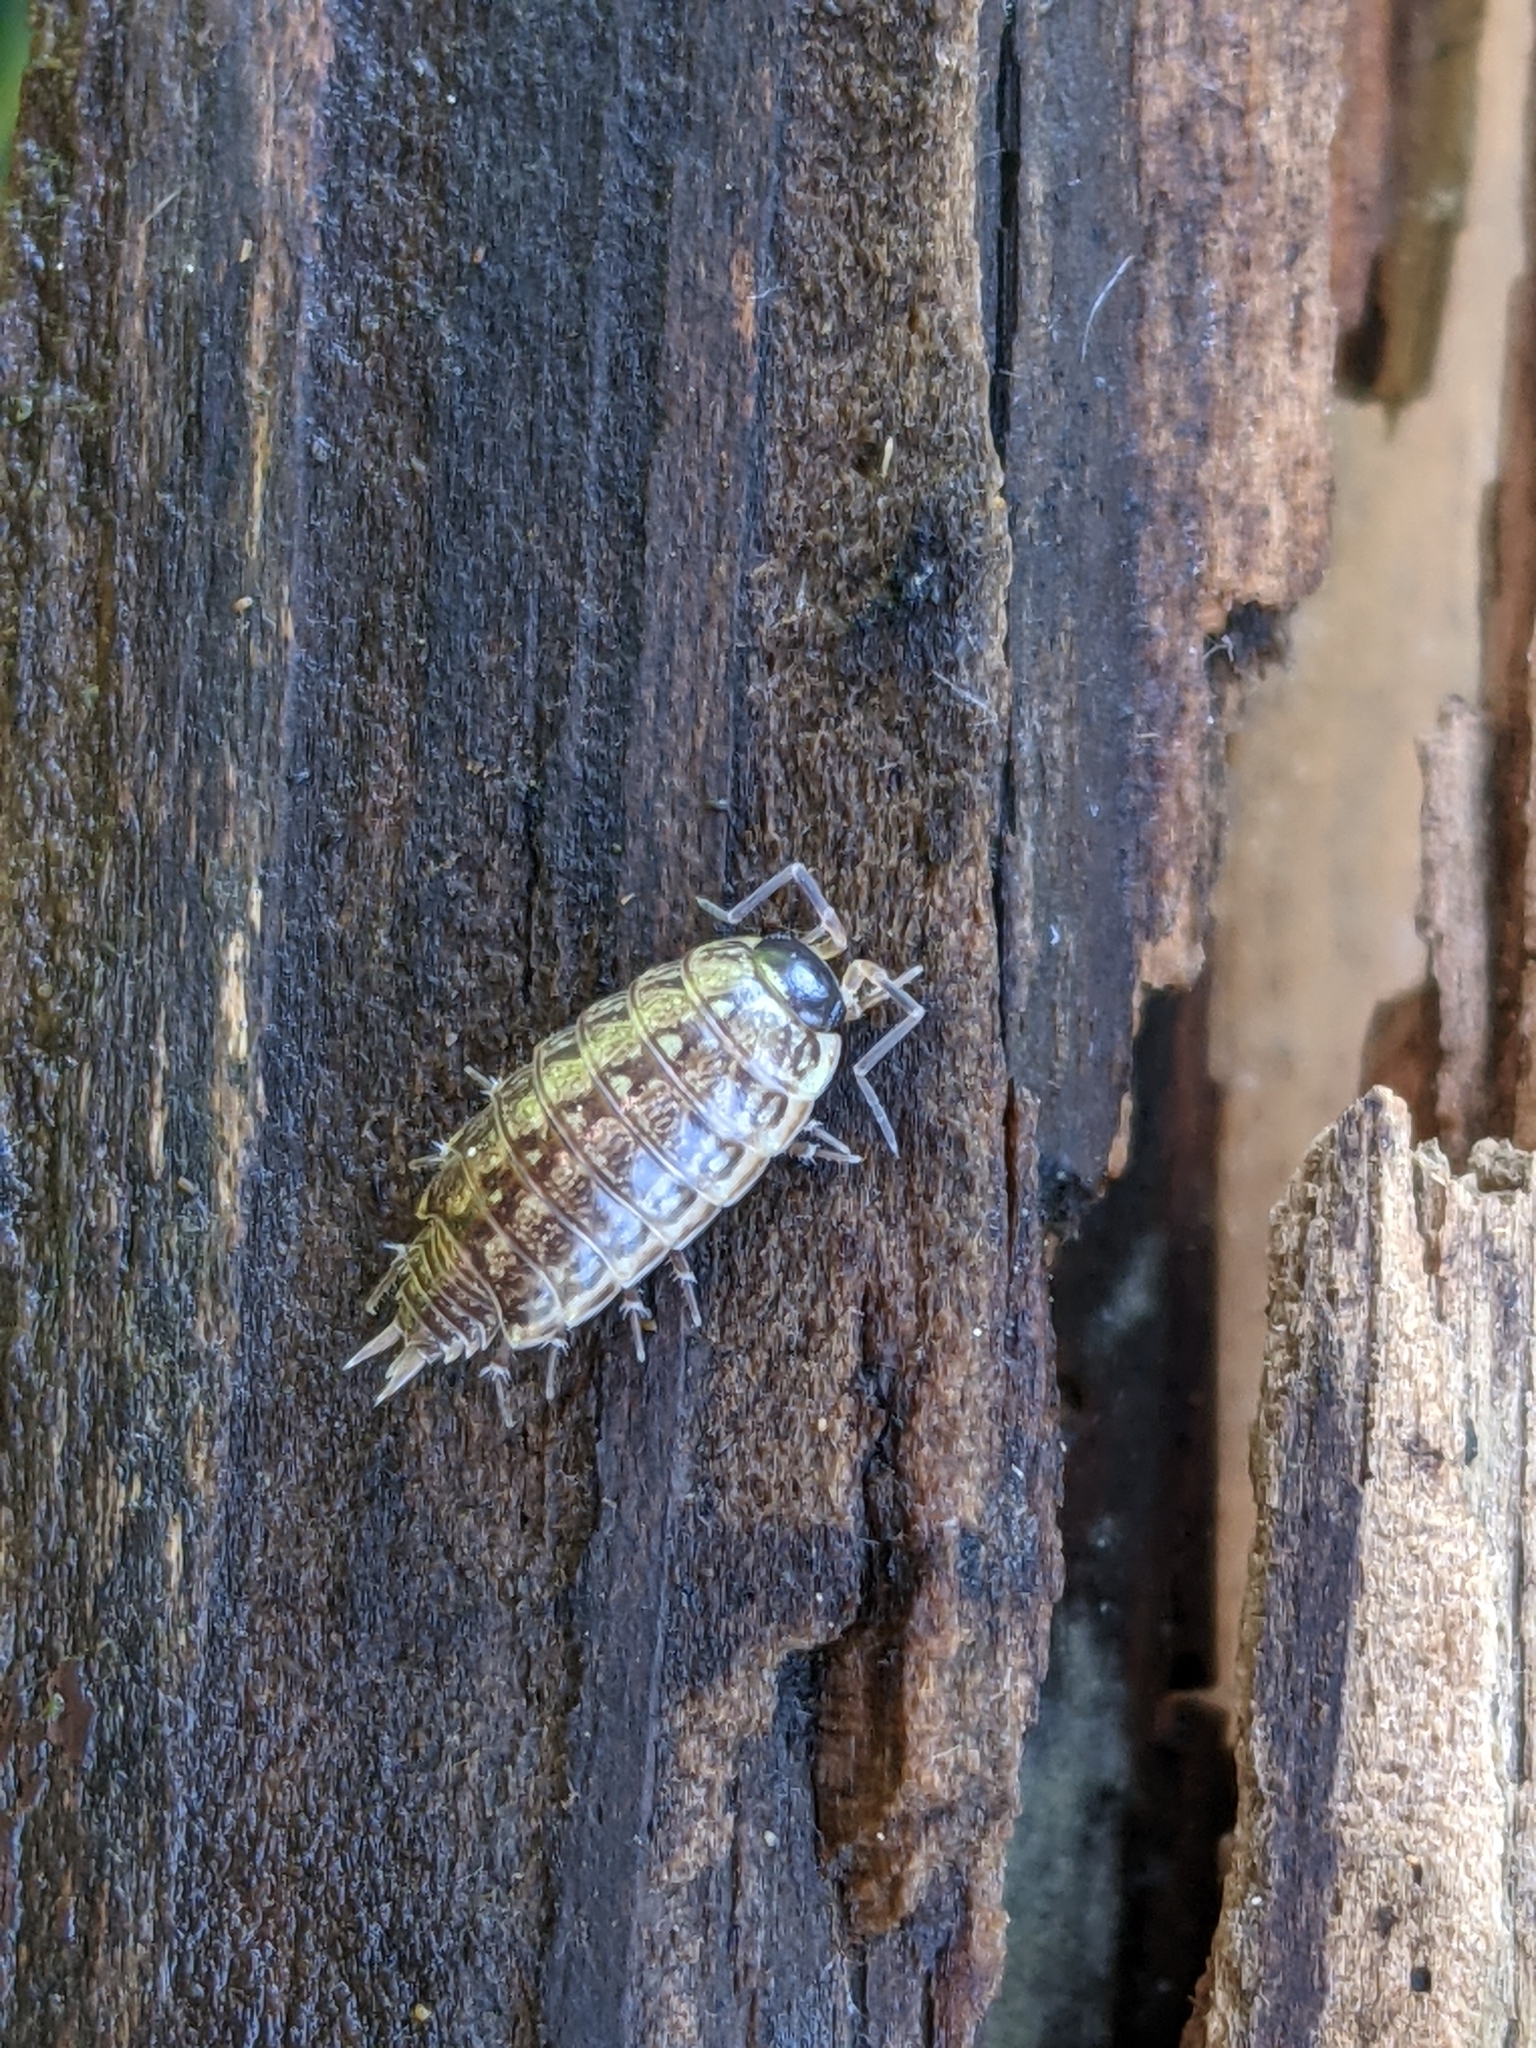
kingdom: Animalia
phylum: Arthropoda
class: Malacostraca
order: Isopoda
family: Philosciidae
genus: Philoscia
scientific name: Philoscia muscorum
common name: Common striped woodlouse
